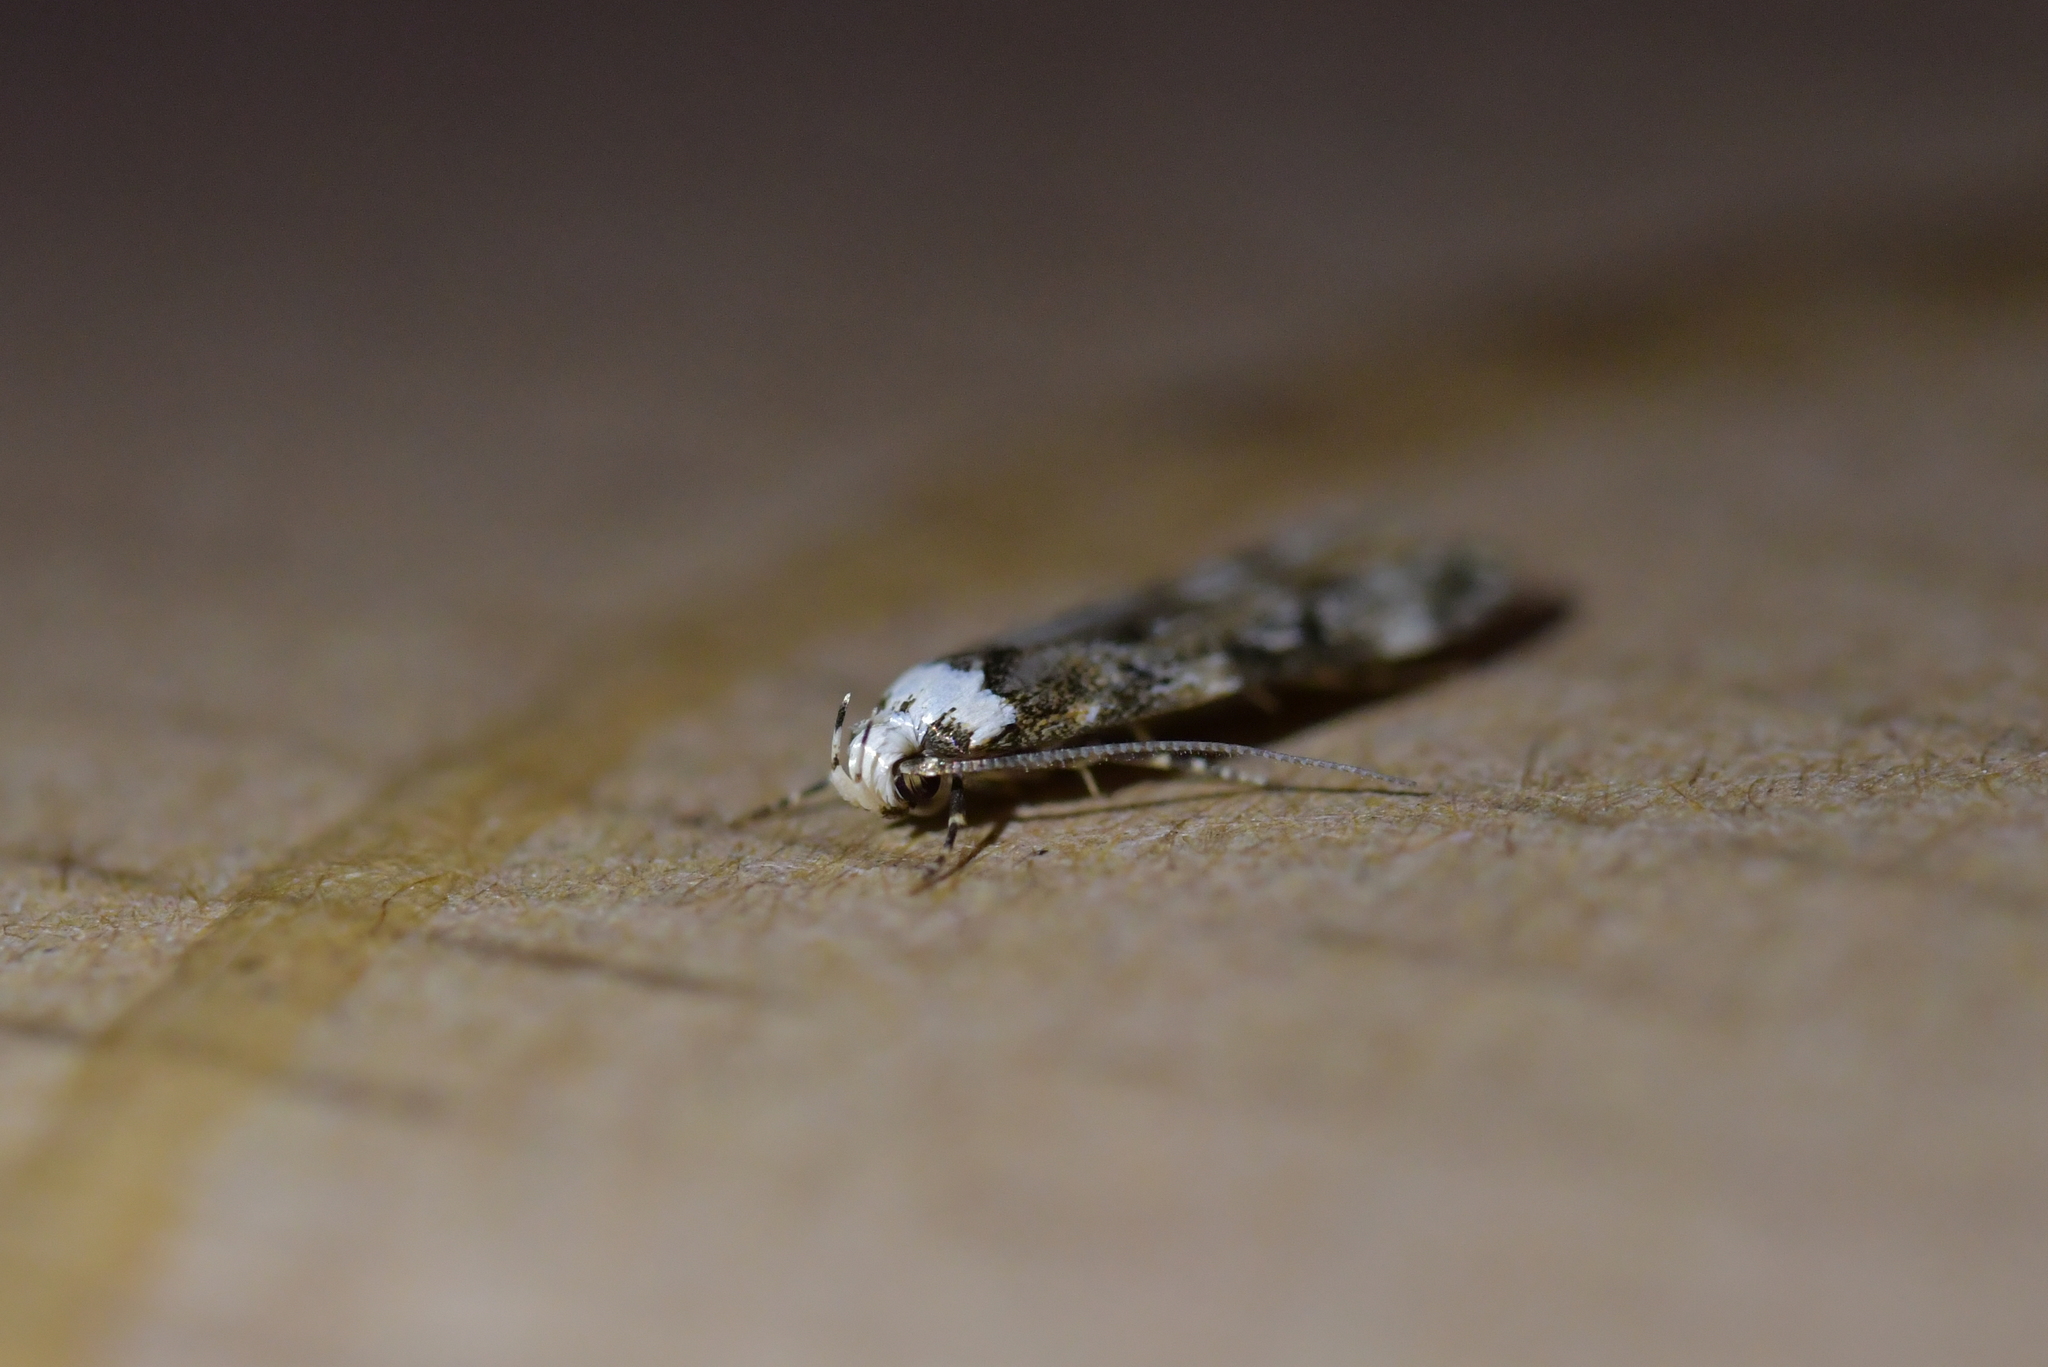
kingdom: Animalia
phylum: Arthropoda
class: Insecta
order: Lepidoptera
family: Oecophoridae
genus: Endrosis
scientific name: Endrosis sarcitrella
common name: White-shouldered house moth
